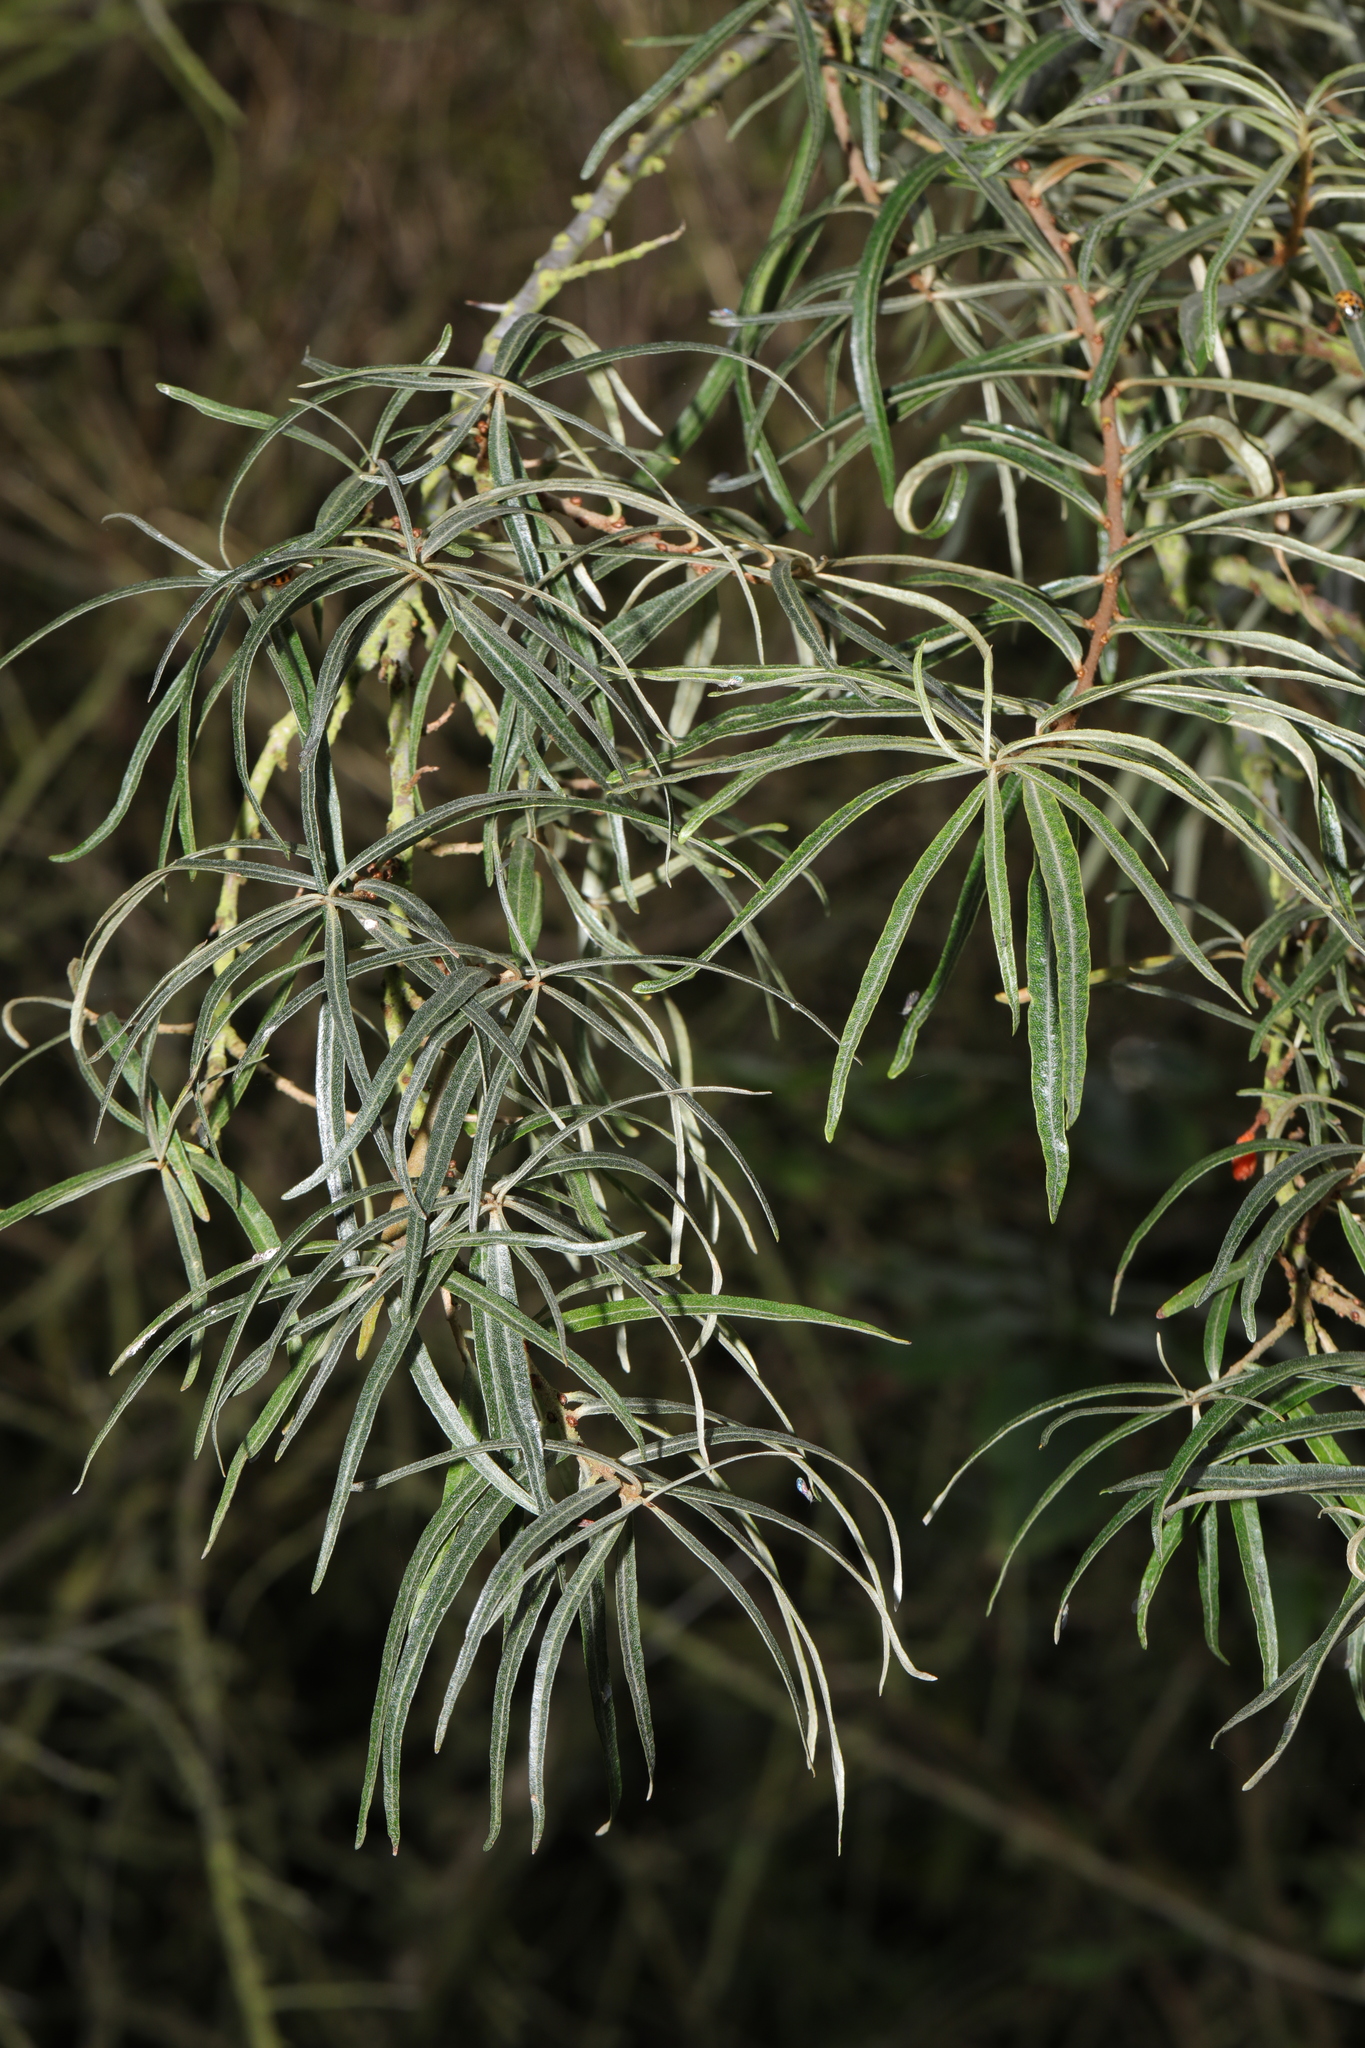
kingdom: Plantae
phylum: Tracheophyta
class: Magnoliopsida
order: Rosales
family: Elaeagnaceae
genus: Hippophae
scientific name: Hippophae rhamnoides
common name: Sea-buckthorn
